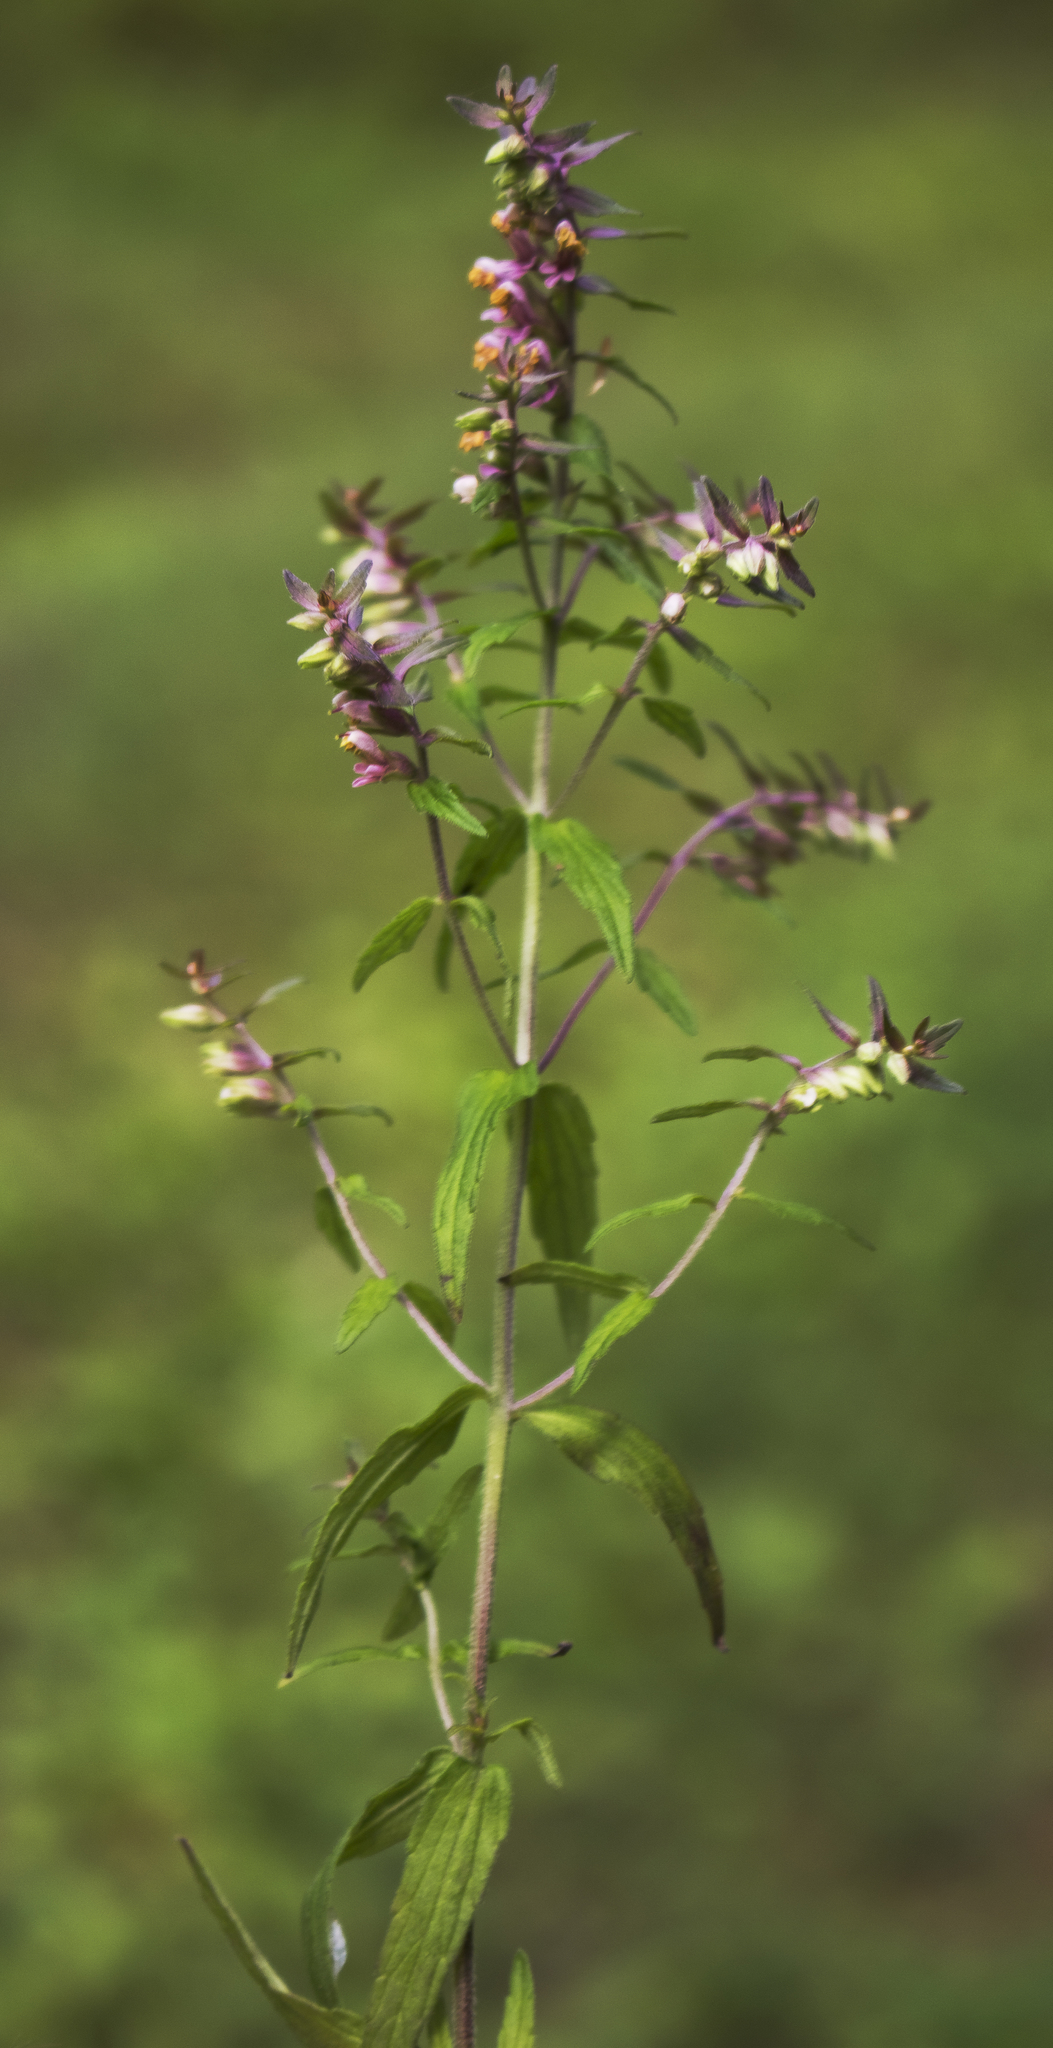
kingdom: Plantae
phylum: Tracheophyta
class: Magnoliopsida
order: Lamiales
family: Orobanchaceae
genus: Odontites
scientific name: Odontites vulgaris
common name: Broomrape
